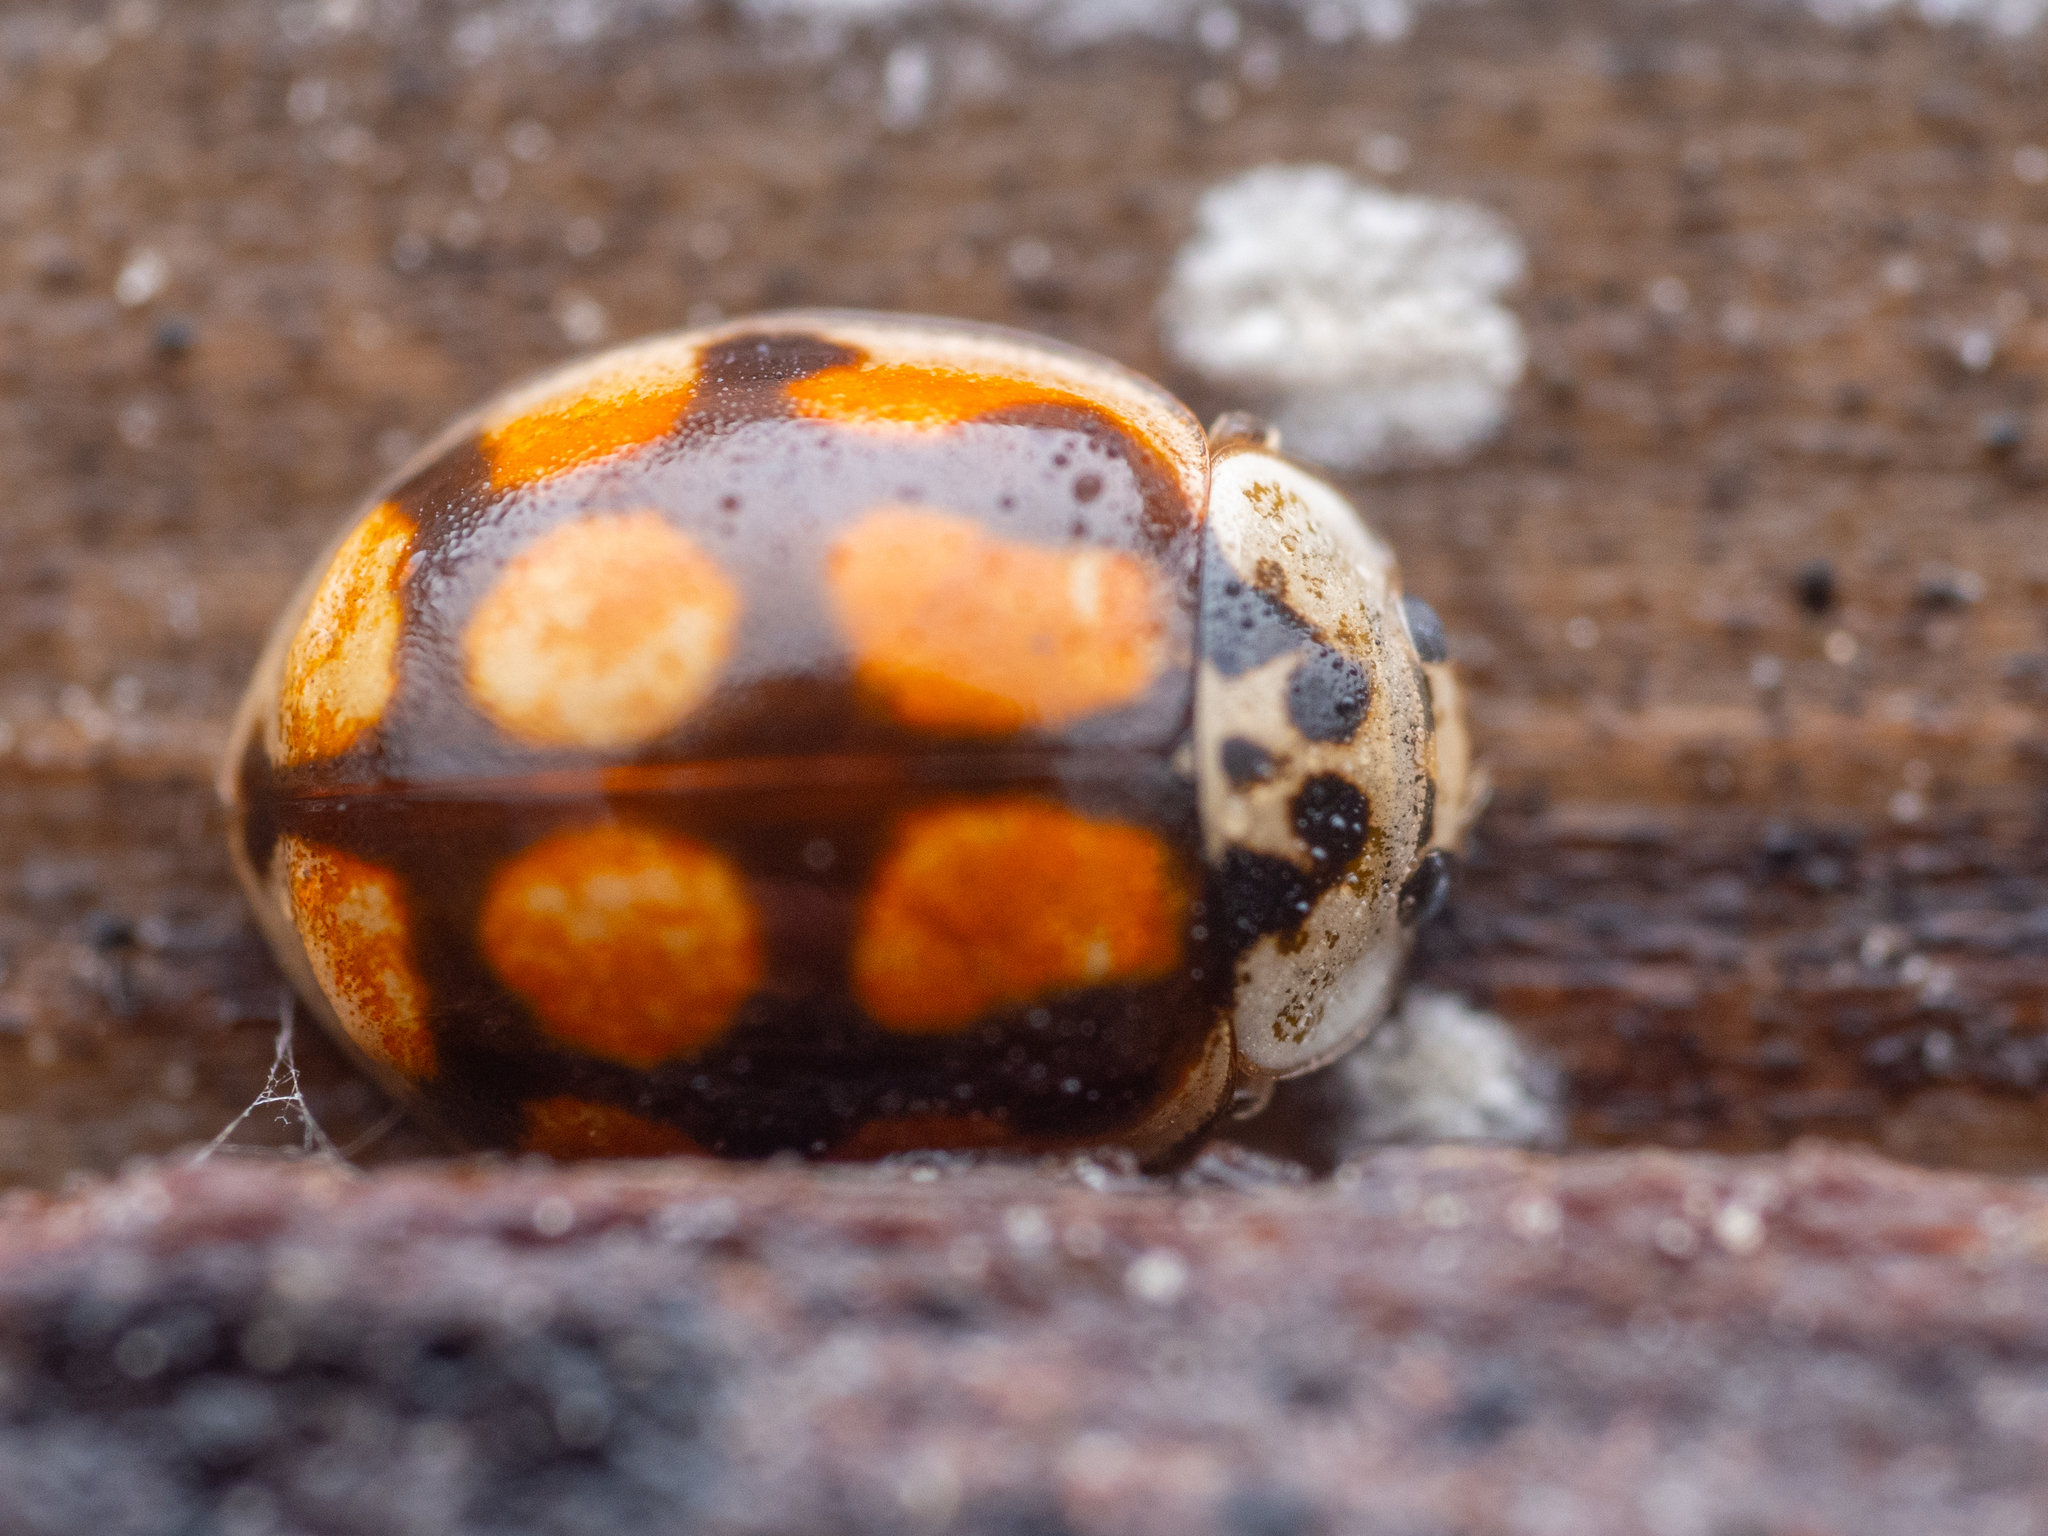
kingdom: Animalia
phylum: Arthropoda
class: Insecta
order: Coleoptera
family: Coccinellidae
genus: Adalia
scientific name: Adalia decempunctata
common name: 10-spot ladybird
